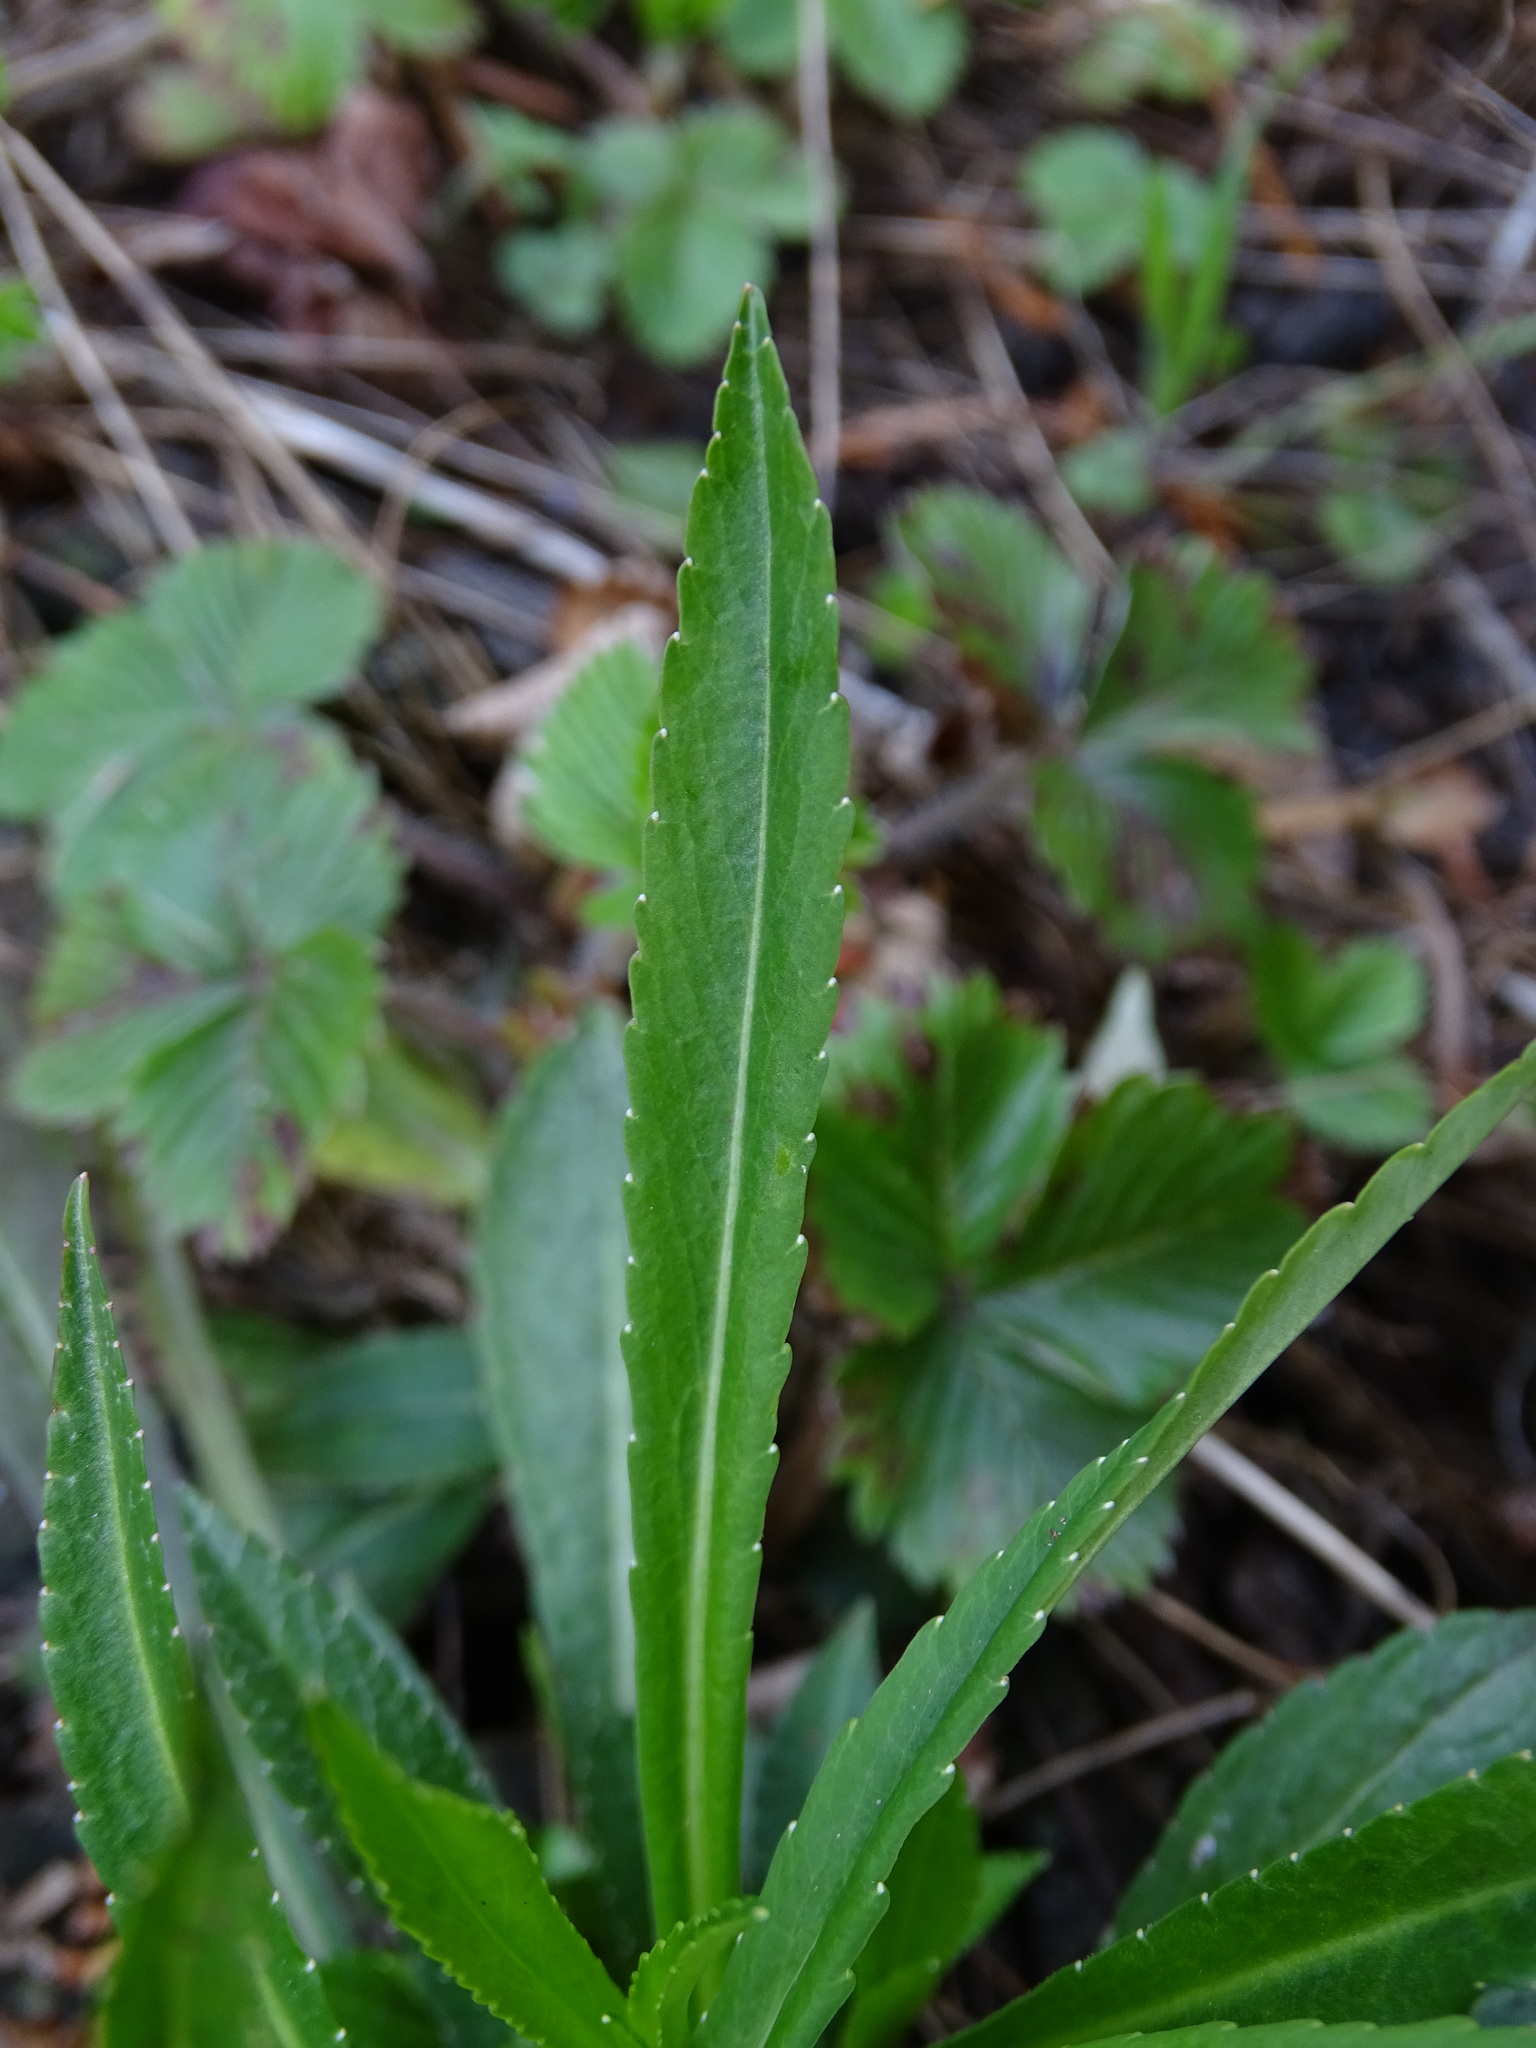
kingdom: Plantae
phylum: Tracheophyta
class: Magnoliopsida
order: Asterales
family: Campanulaceae
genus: Campanula
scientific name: Campanula persicifolia
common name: Peach-leaved bellflower
